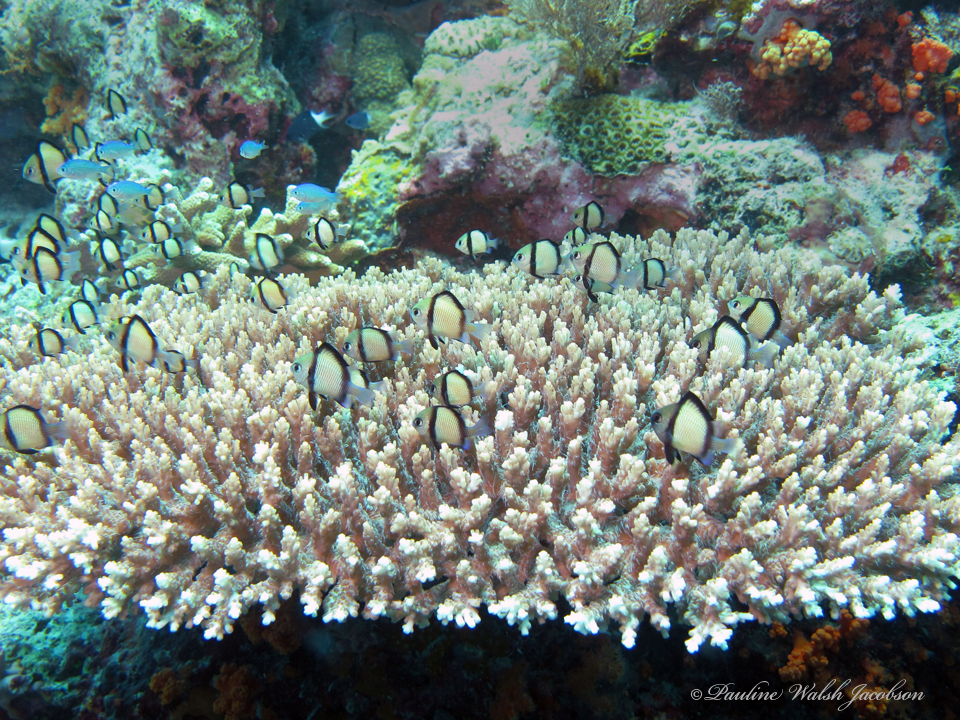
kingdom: Animalia
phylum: Chordata
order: Perciformes
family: Pomacentridae
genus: Dascyllus
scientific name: Dascyllus reticulatus
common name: Reticulated dascyllus
